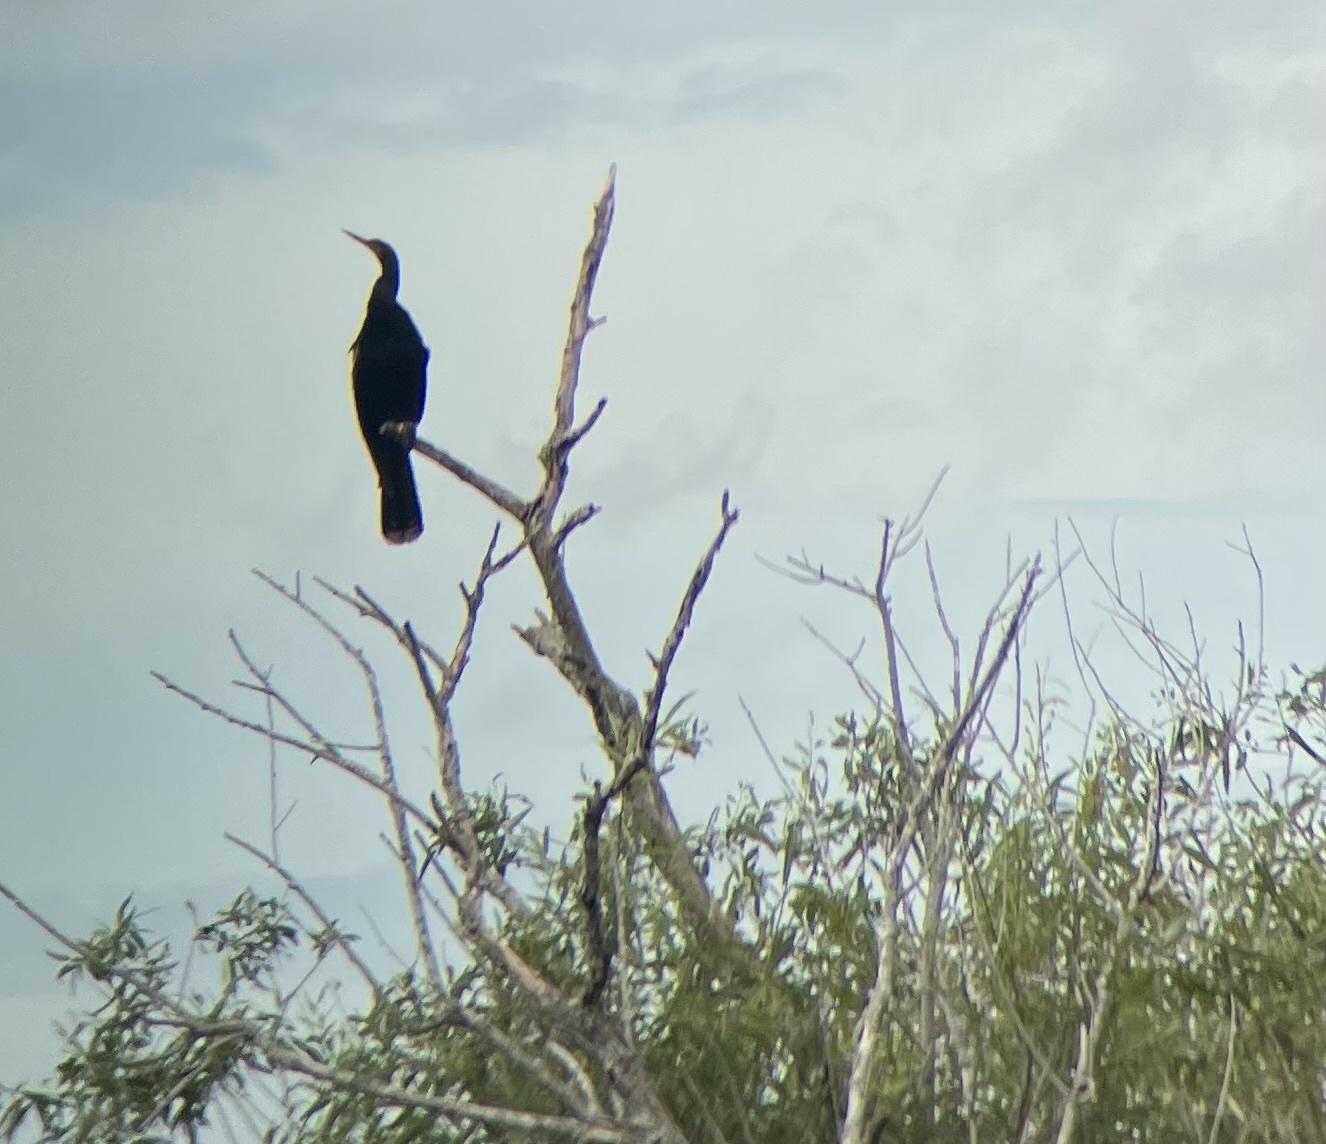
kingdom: Animalia
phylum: Chordata
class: Aves
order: Suliformes
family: Anhingidae
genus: Anhinga
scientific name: Anhinga anhinga
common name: Anhinga
